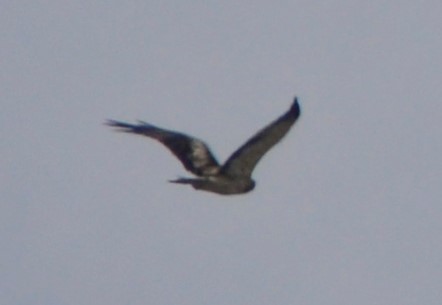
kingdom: Animalia
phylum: Chordata
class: Aves
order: Accipitriformes
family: Accipitridae
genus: Hieraaetus
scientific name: Hieraaetus pennatus
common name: Booted eagle
